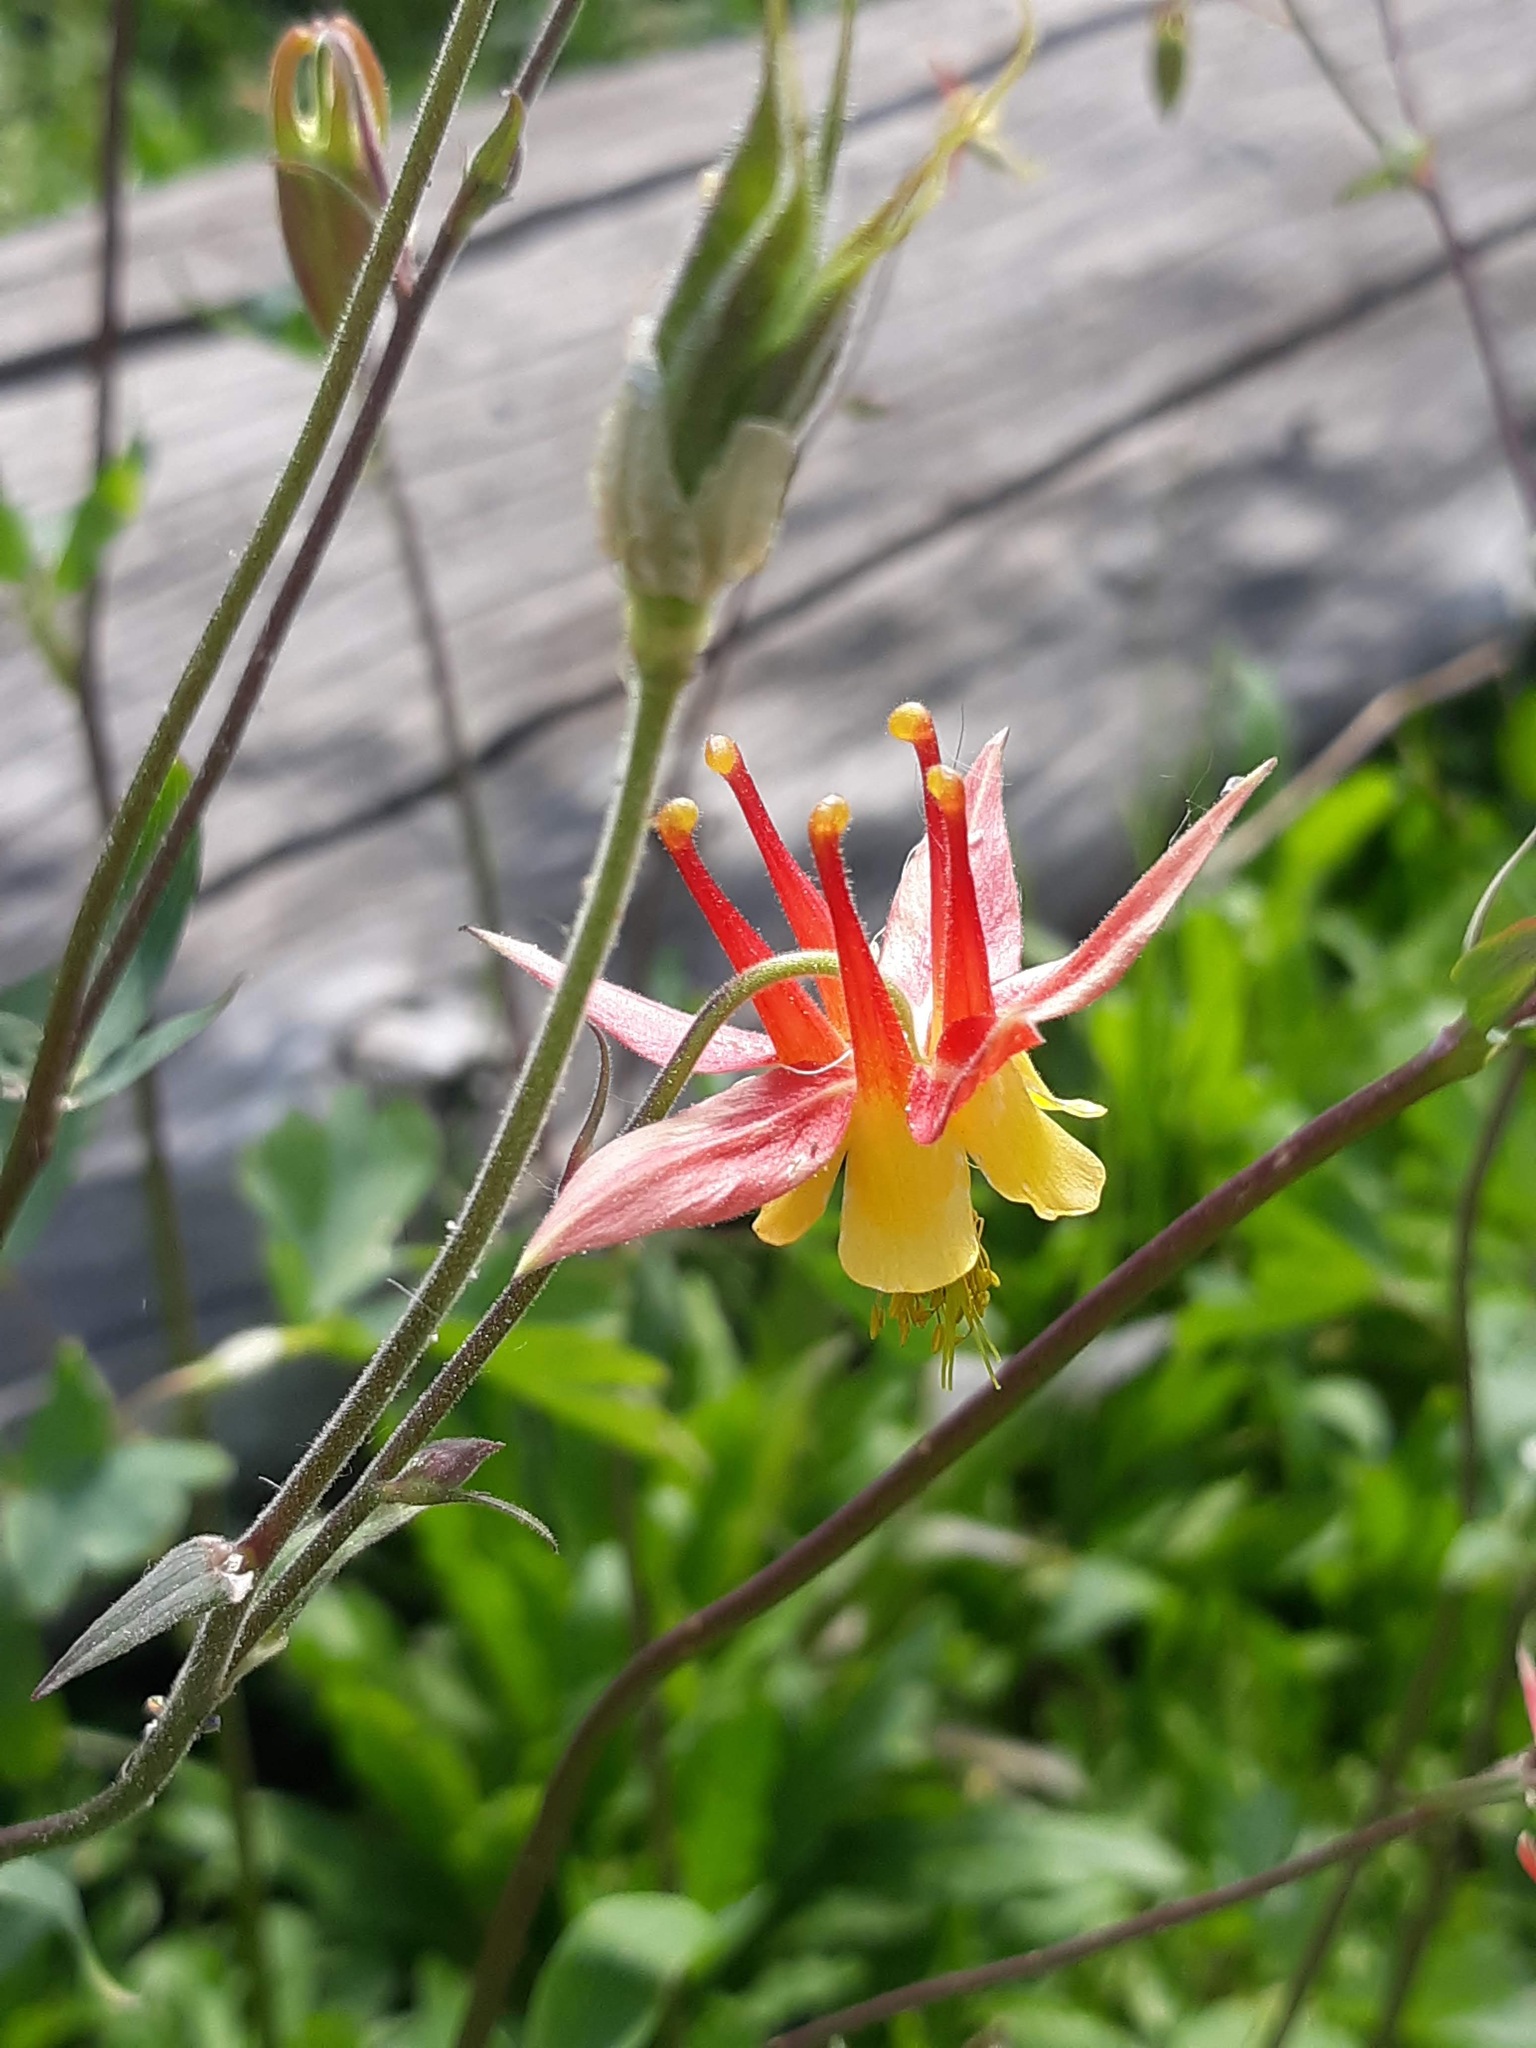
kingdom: Plantae
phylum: Tracheophyta
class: Magnoliopsida
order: Ranunculales
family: Ranunculaceae
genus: Aquilegia
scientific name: Aquilegia formosa
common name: Sitka columbine
